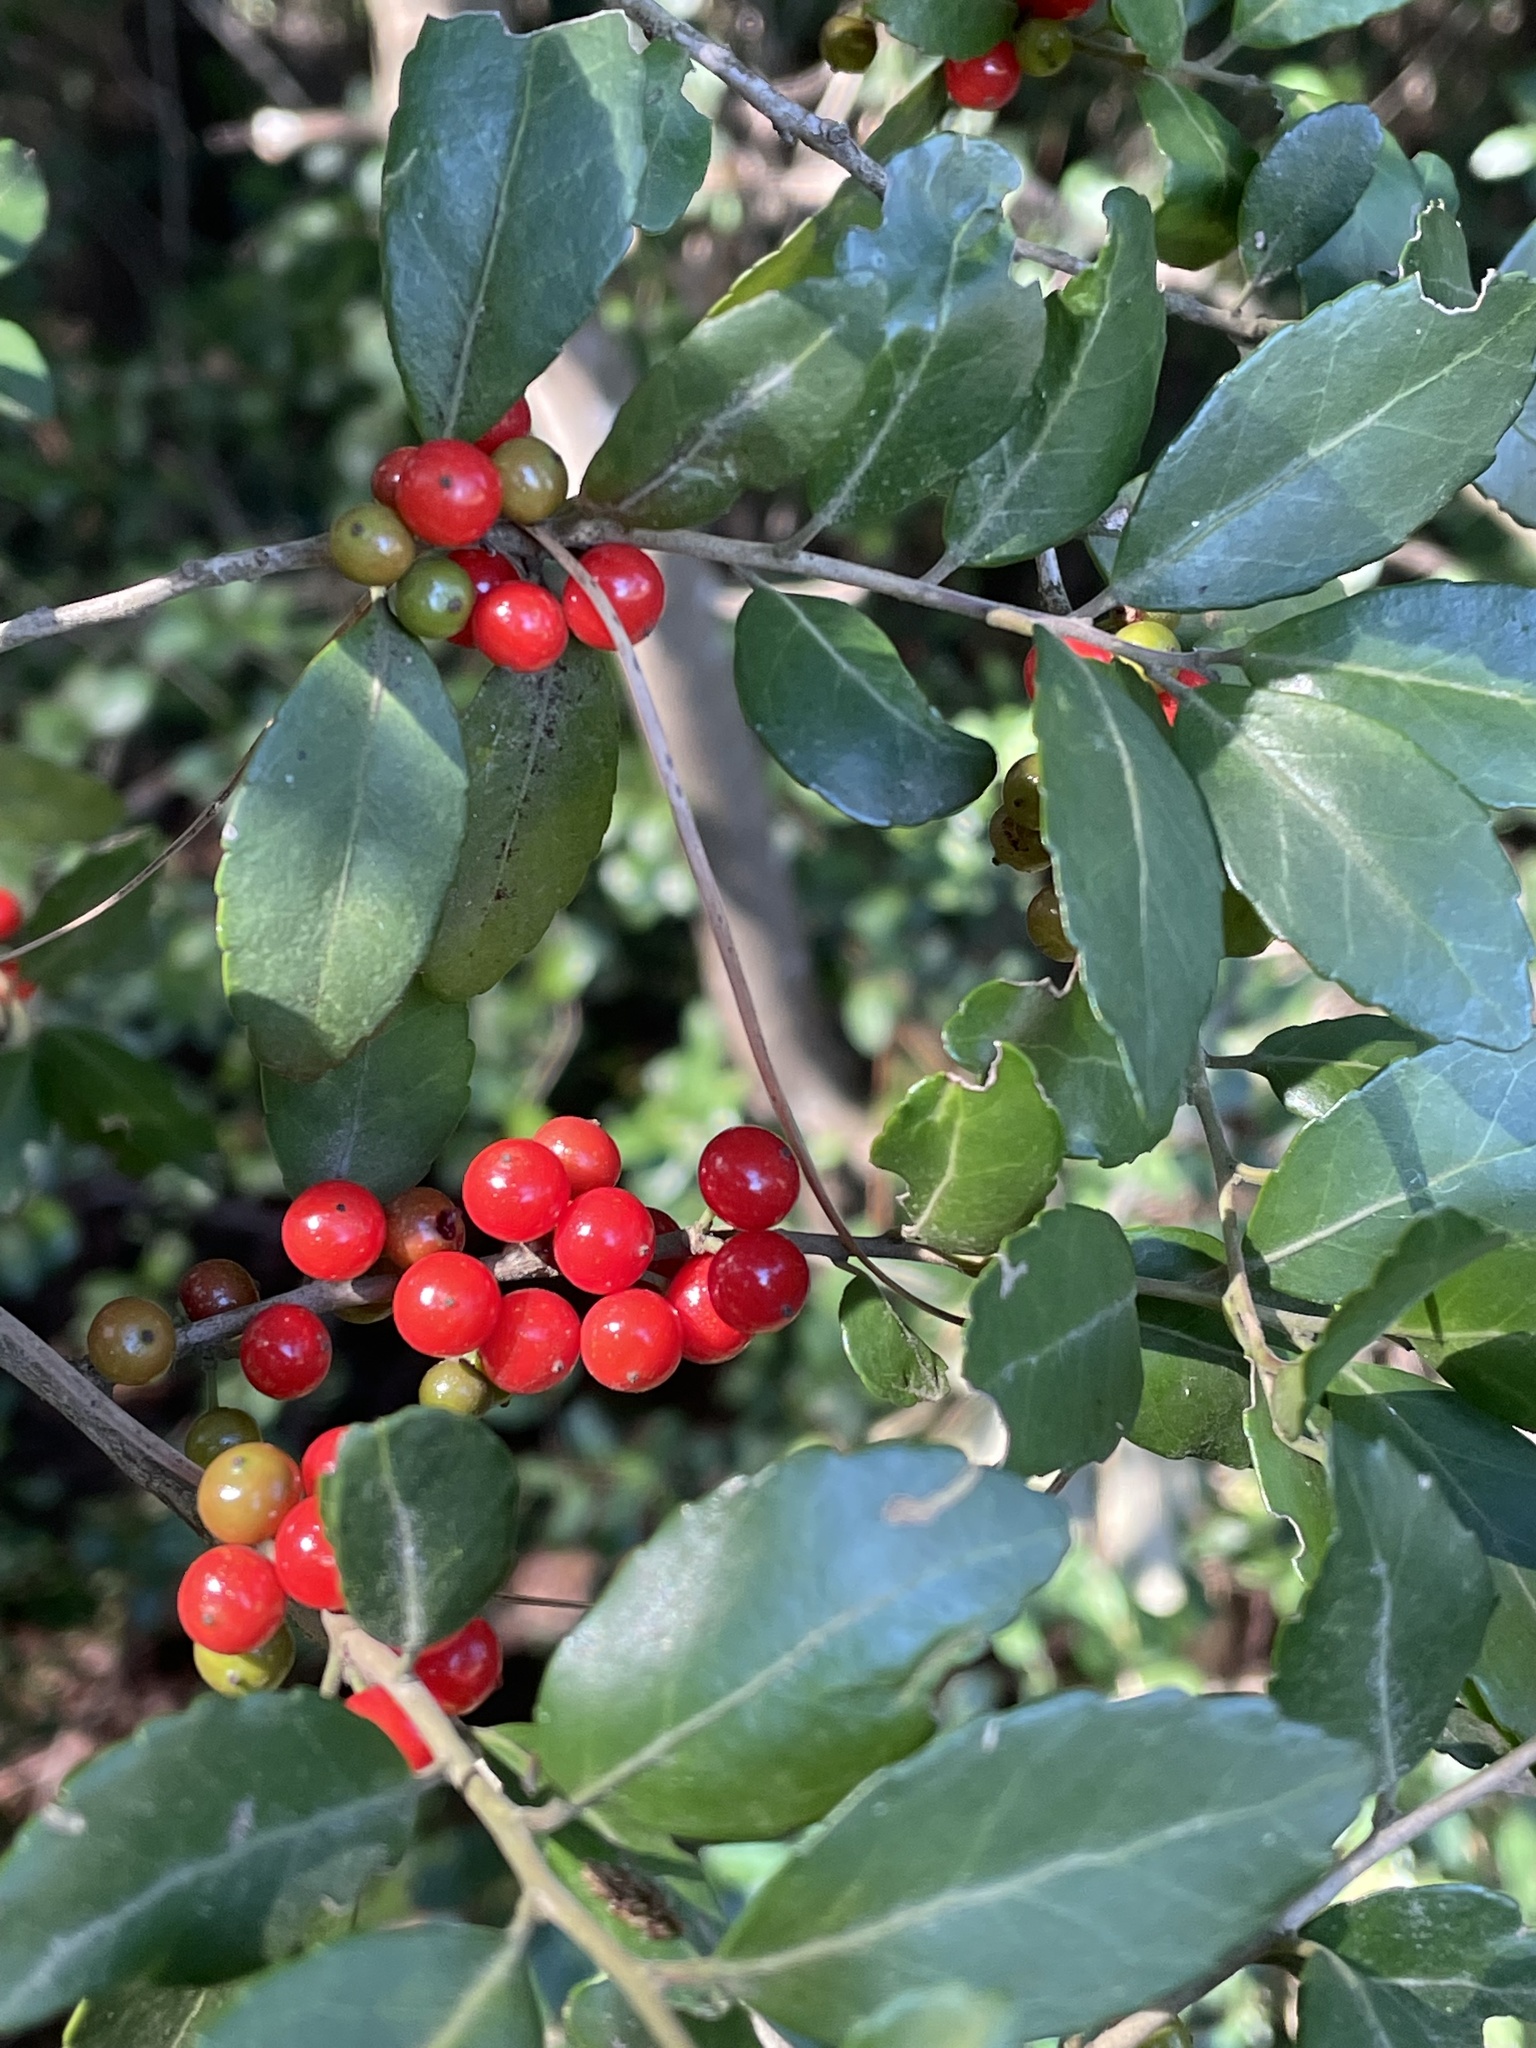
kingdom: Plantae
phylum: Tracheophyta
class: Magnoliopsida
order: Aquifoliales
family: Aquifoliaceae
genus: Ilex
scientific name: Ilex vomitoria
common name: Yaupon holly
